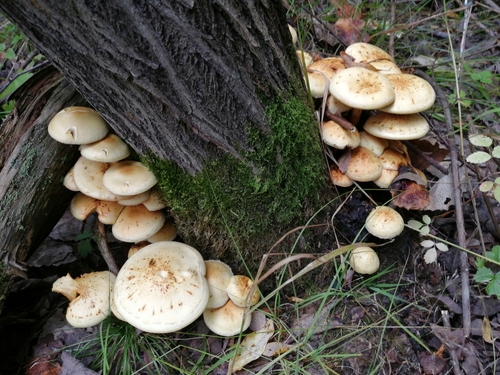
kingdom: Fungi
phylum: Basidiomycota
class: Agaricomycetes
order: Agaricales
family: Hymenogastraceae
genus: Flammula
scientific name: Flammula alnicola
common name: Alder scalycap
